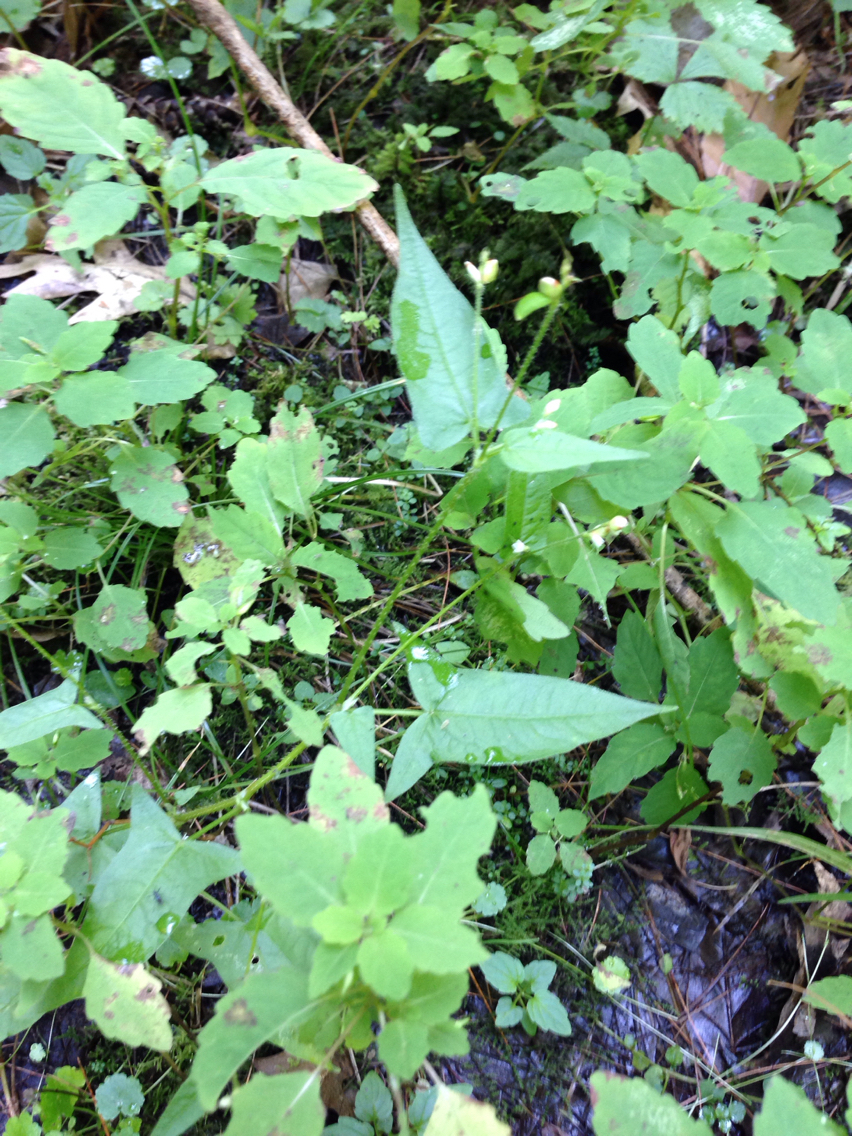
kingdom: Plantae
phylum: Tracheophyta
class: Magnoliopsida
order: Caryophyllales
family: Polygonaceae
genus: Persicaria
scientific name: Persicaria arifolia
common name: Halberd-leaved tear-thumb
